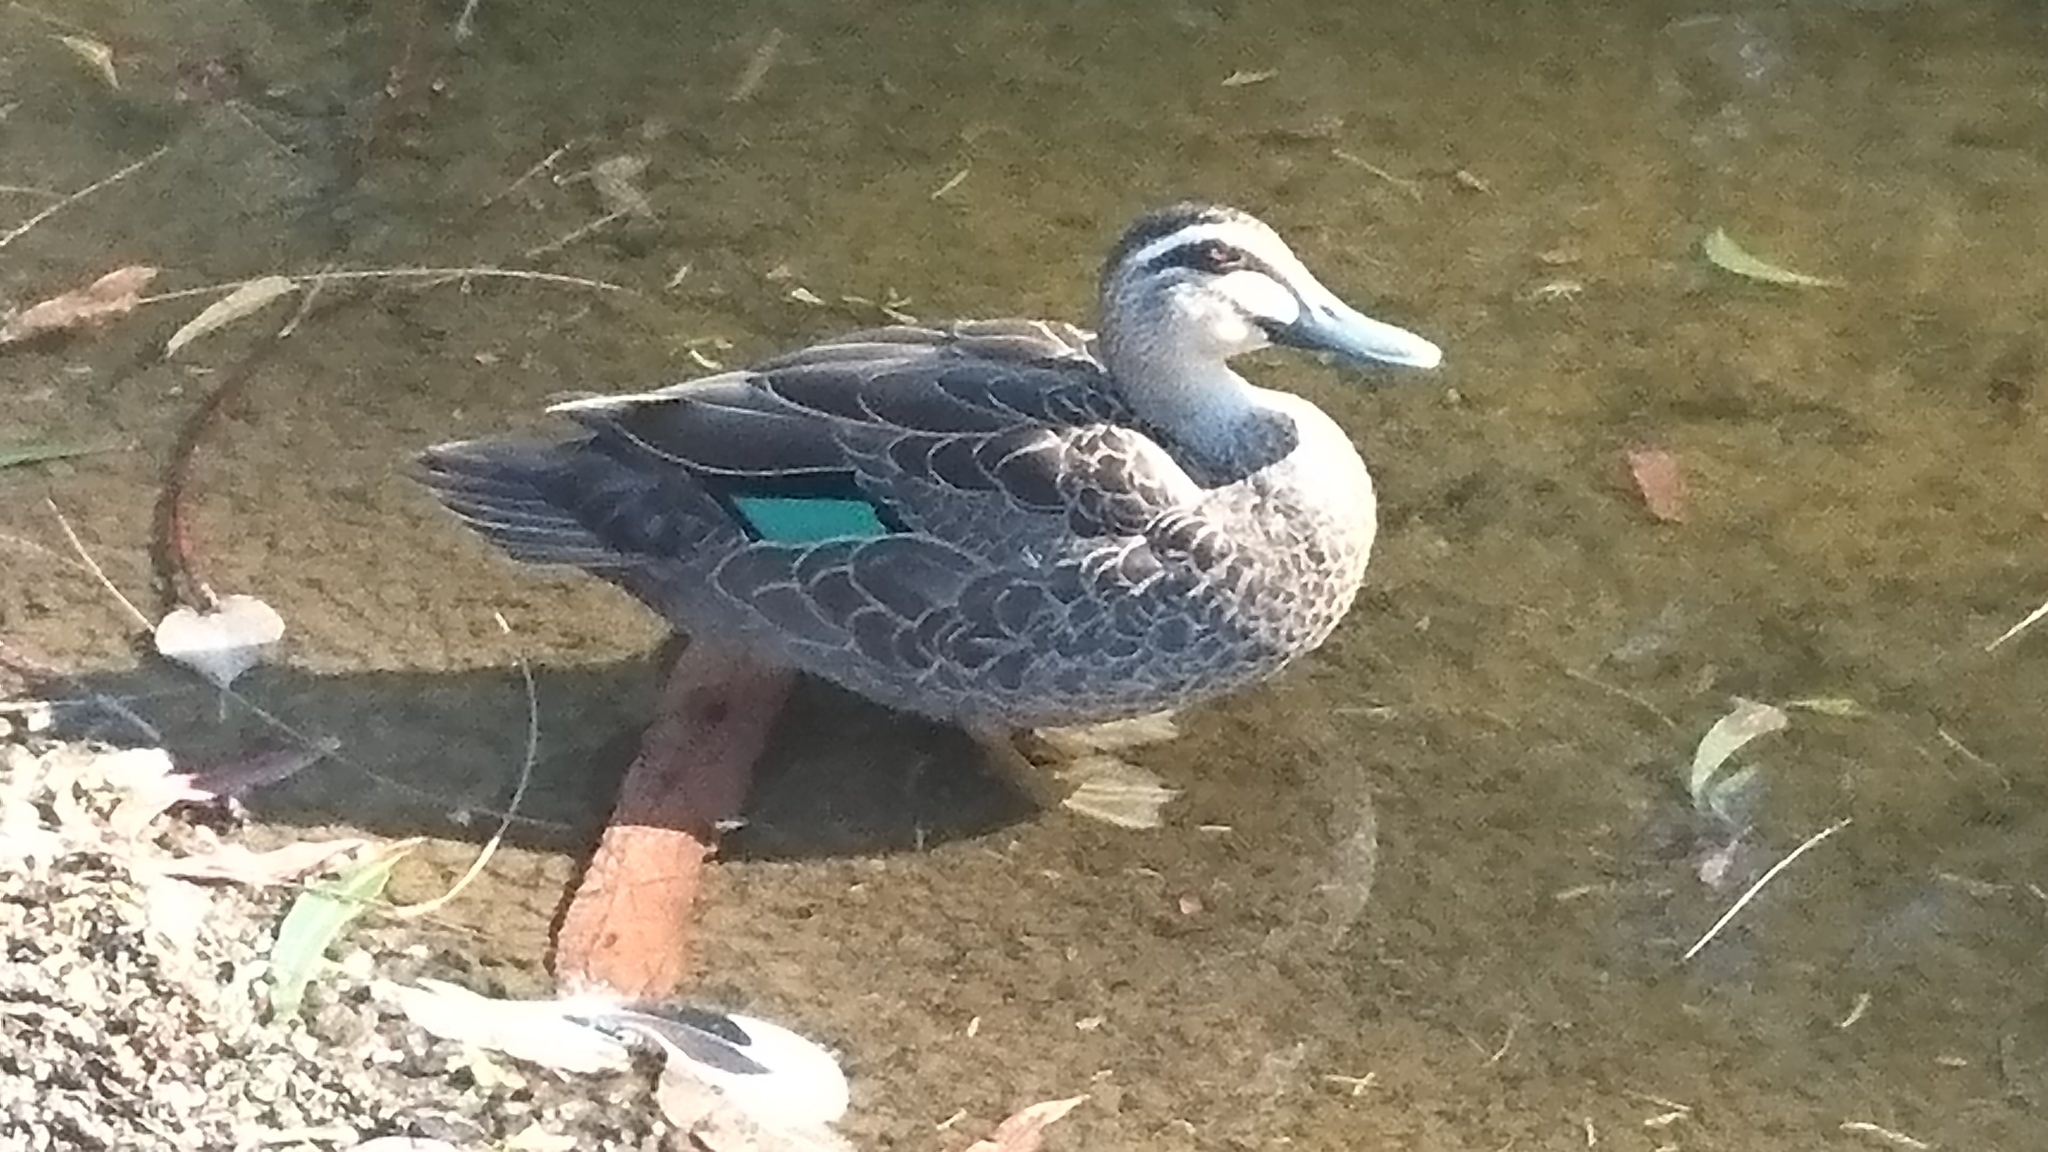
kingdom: Animalia
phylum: Chordata
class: Aves
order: Anseriformes
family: Anatidae
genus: Anas
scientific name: Anas superciliosa
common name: Pacific black duck
